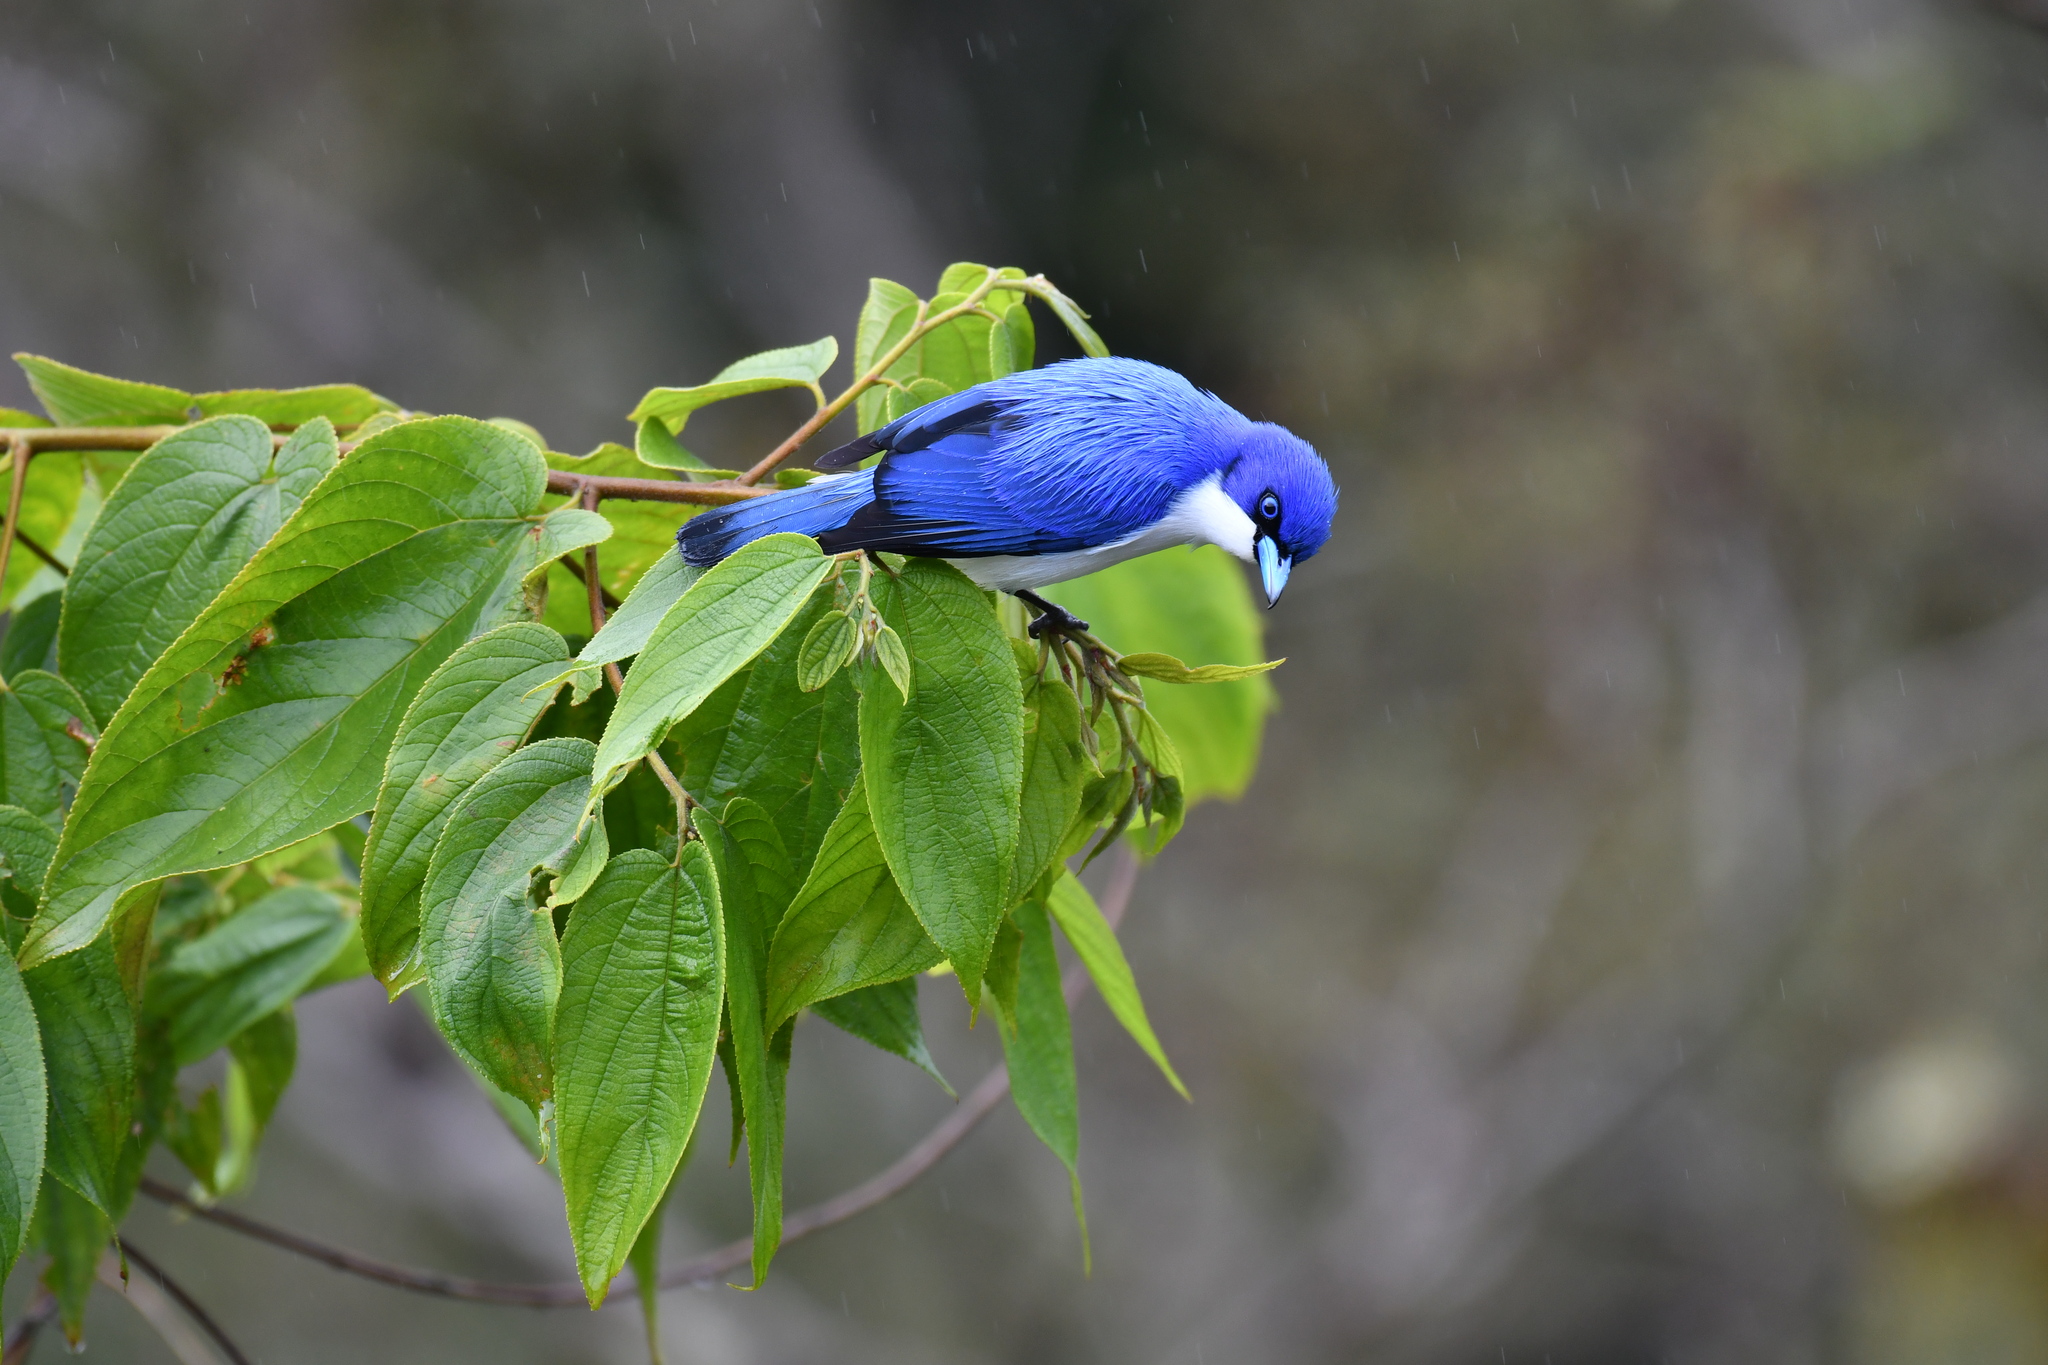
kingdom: Animalia
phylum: Chordata
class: Aves
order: Passeriformes
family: Vangidae
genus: Cyanolanius
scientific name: Cyanolanius madagascarinus
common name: Blue vanga
